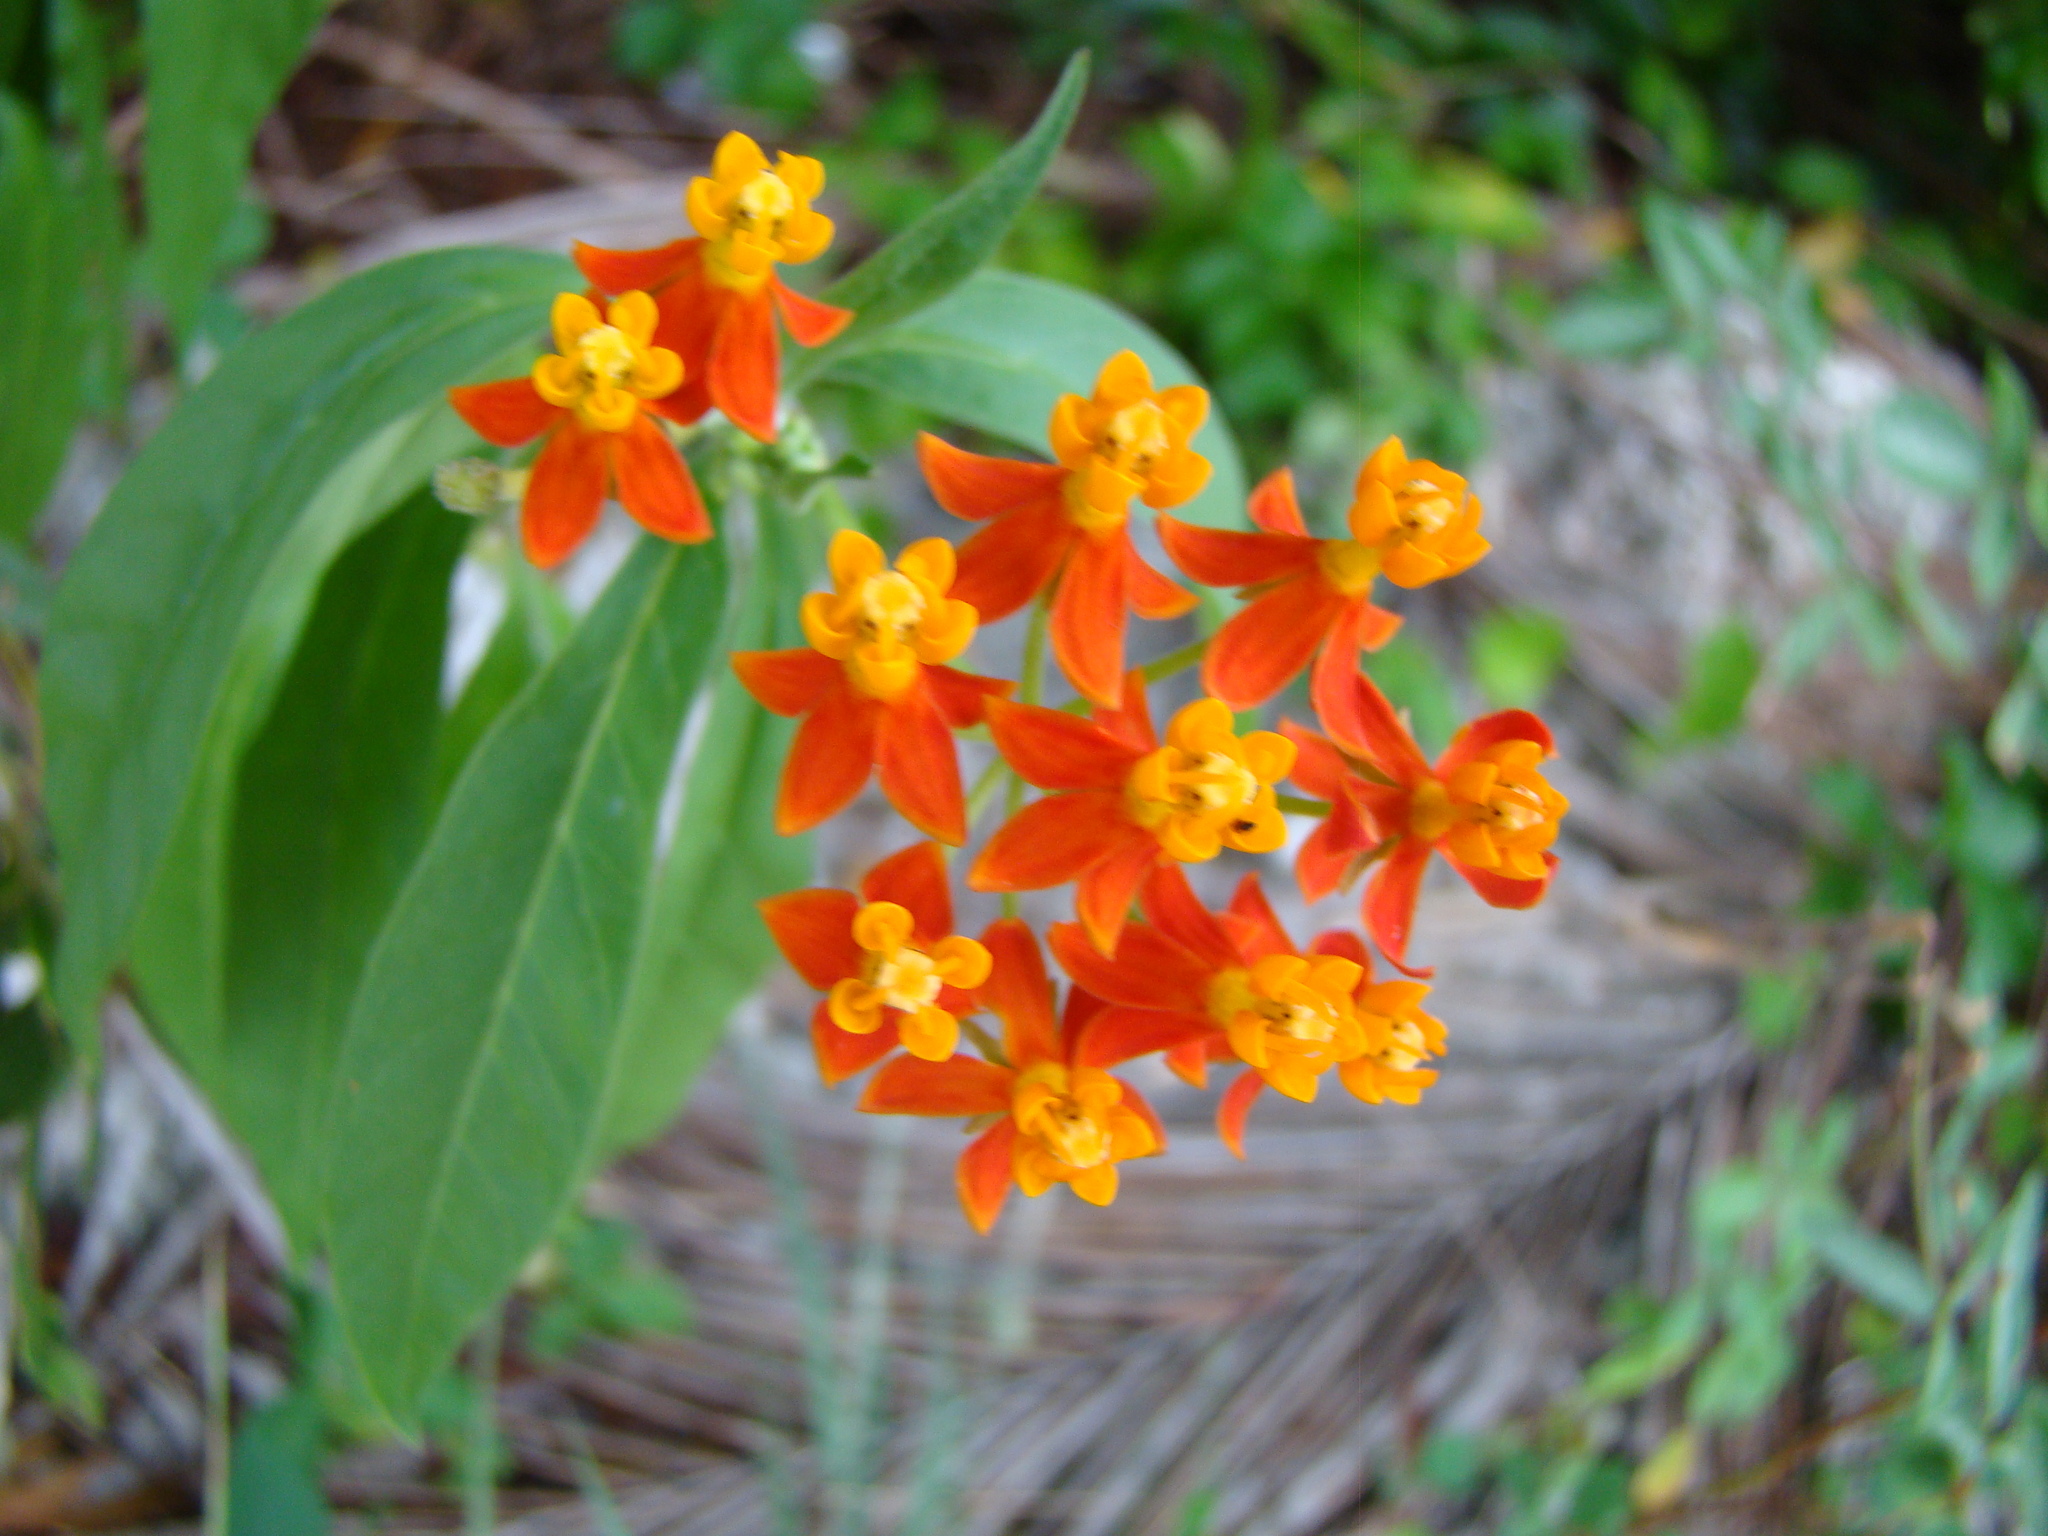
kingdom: Plantae
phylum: Tracheophyta
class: Magnoliopsida
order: Gentianales
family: Apocynaceae
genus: Asclepias
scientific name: Asclepias curassavica
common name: Bloodflower
